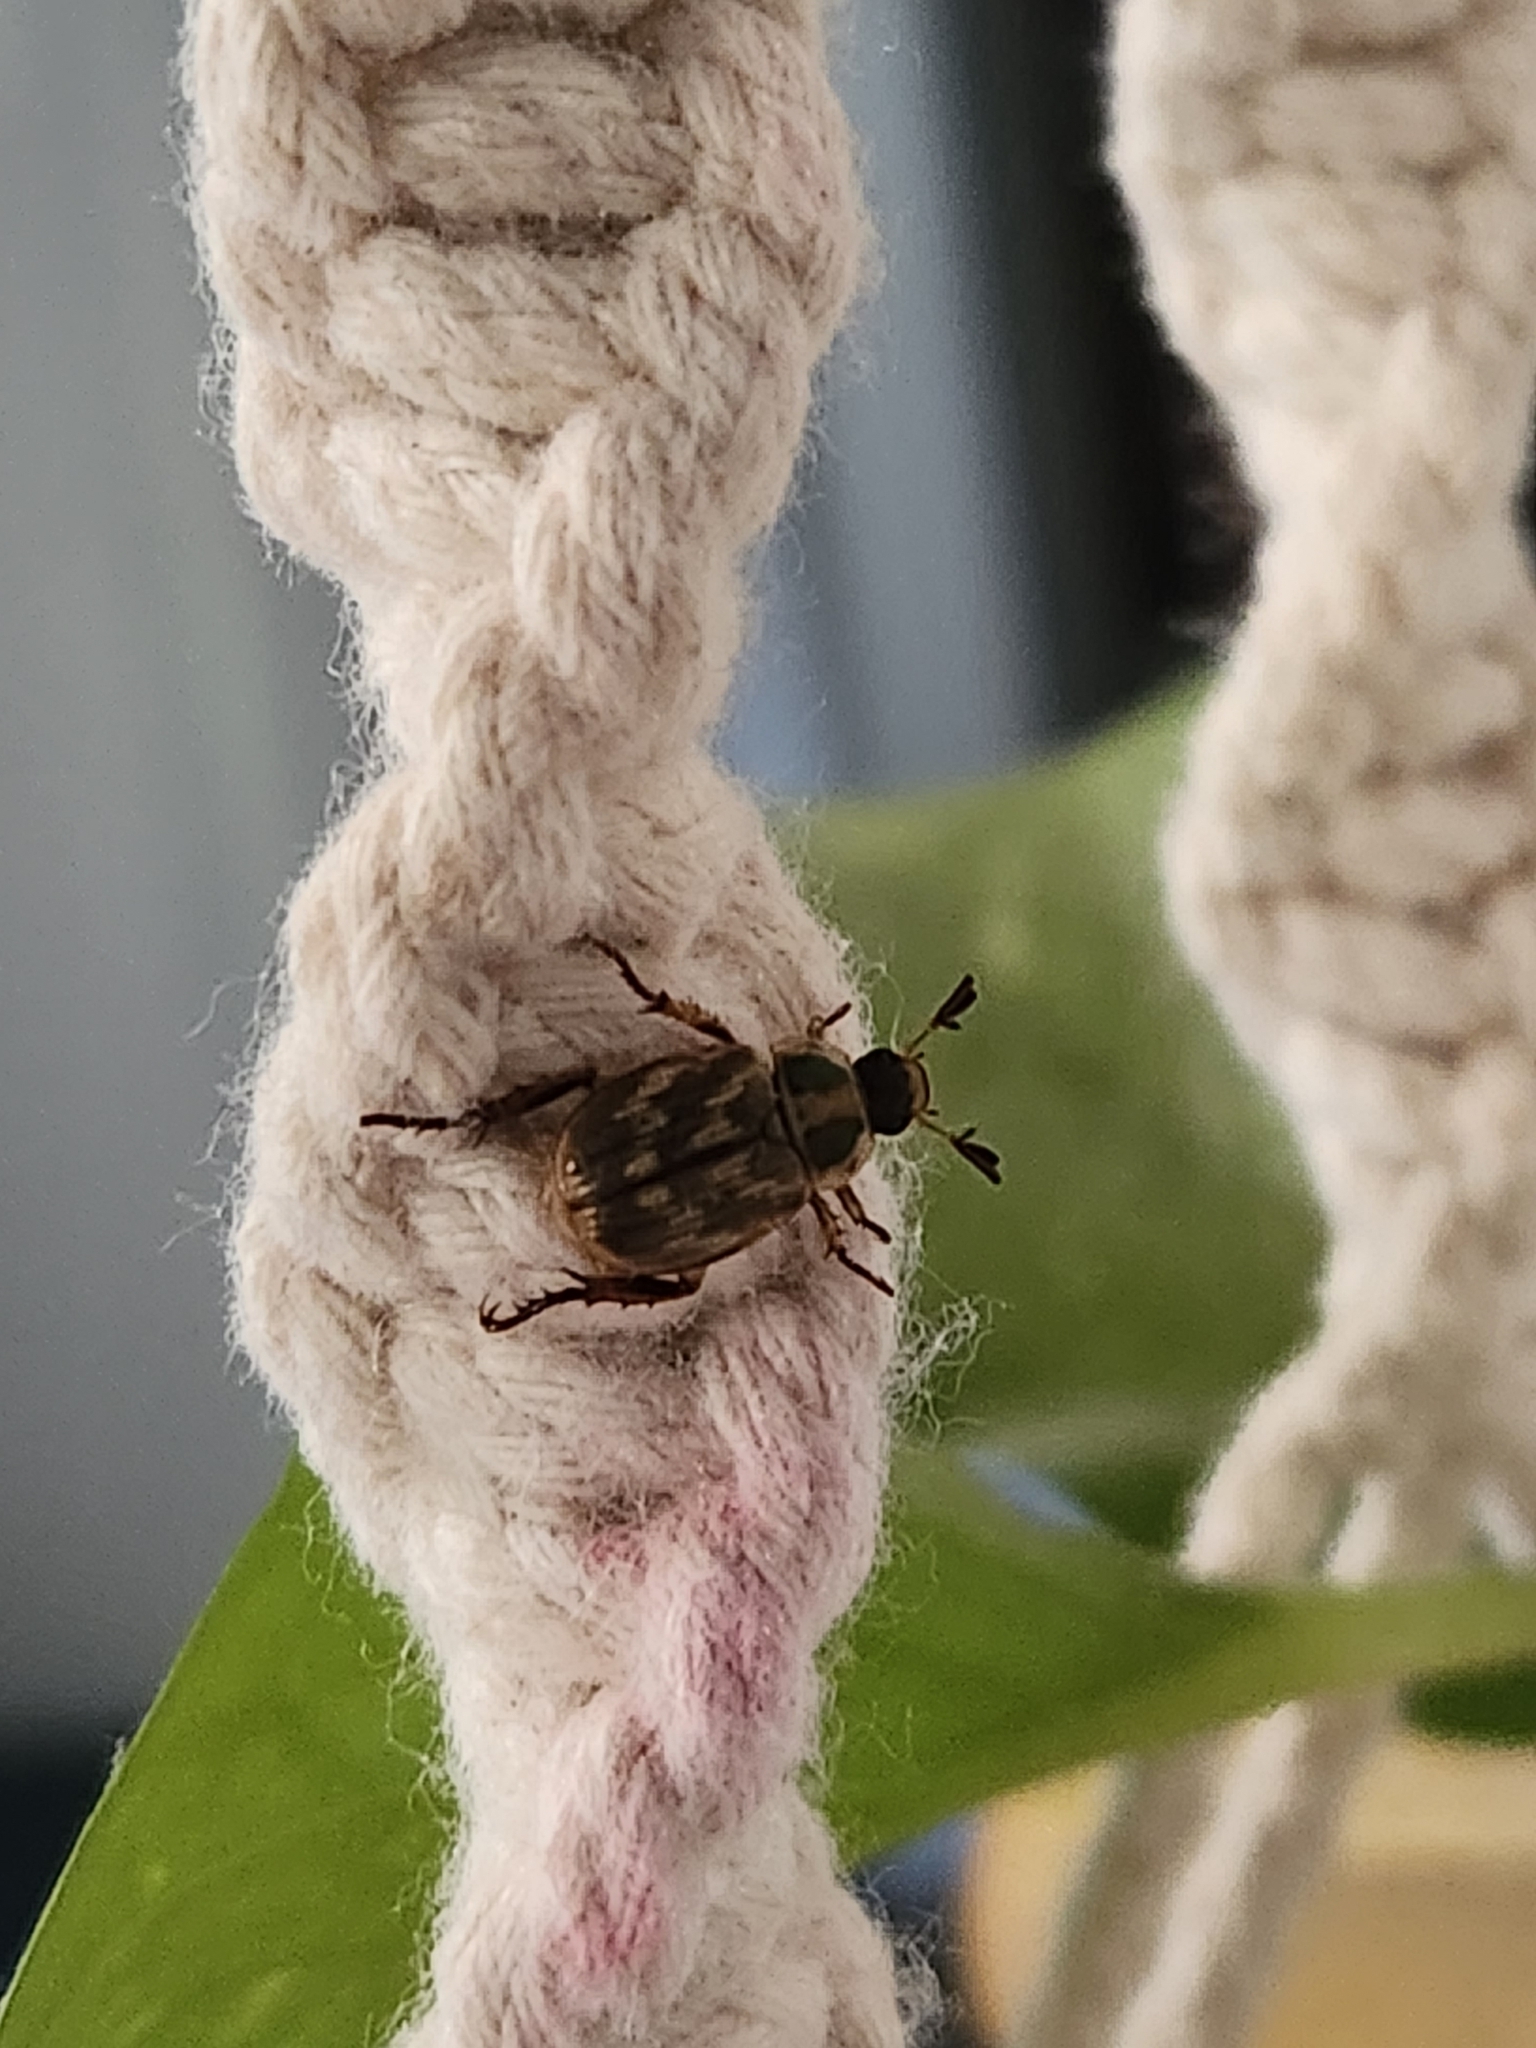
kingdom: Animalia
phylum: Arthropoda
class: Insecta
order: Coleoptera
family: Scarabaeidae
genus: Exomala
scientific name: Exomala orientalis
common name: Oriental beetle
